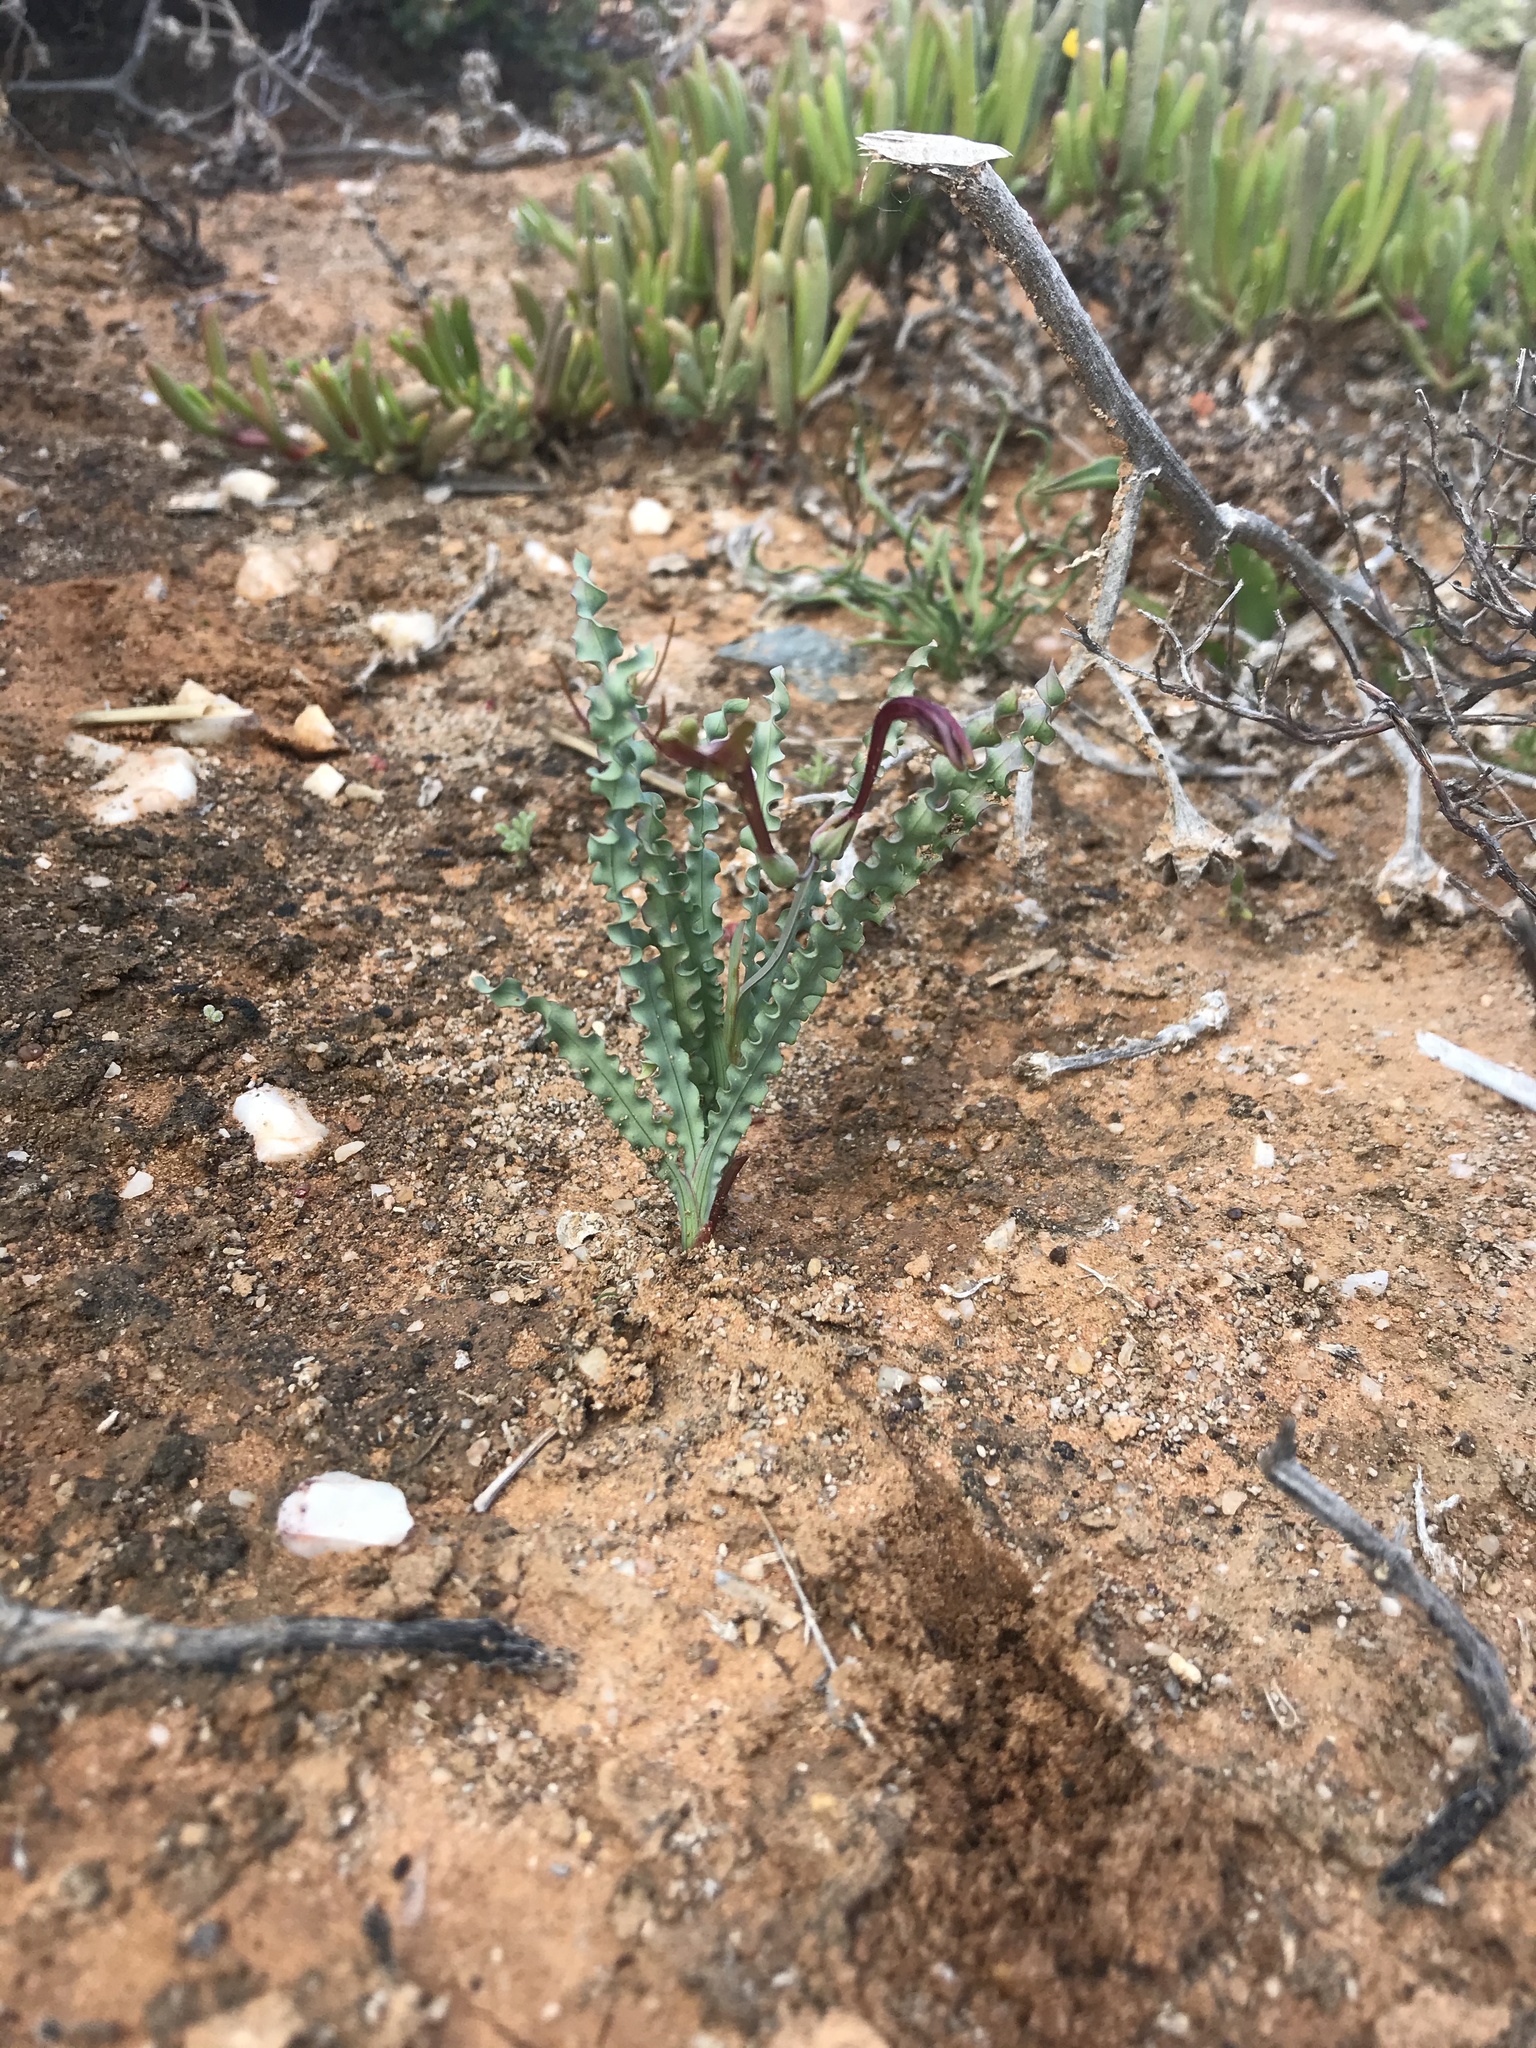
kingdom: Plantae
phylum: Tracheophyta
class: Liliopsida
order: Asparagales
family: Iridaceae
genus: Freesia
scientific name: Freesia viridis
